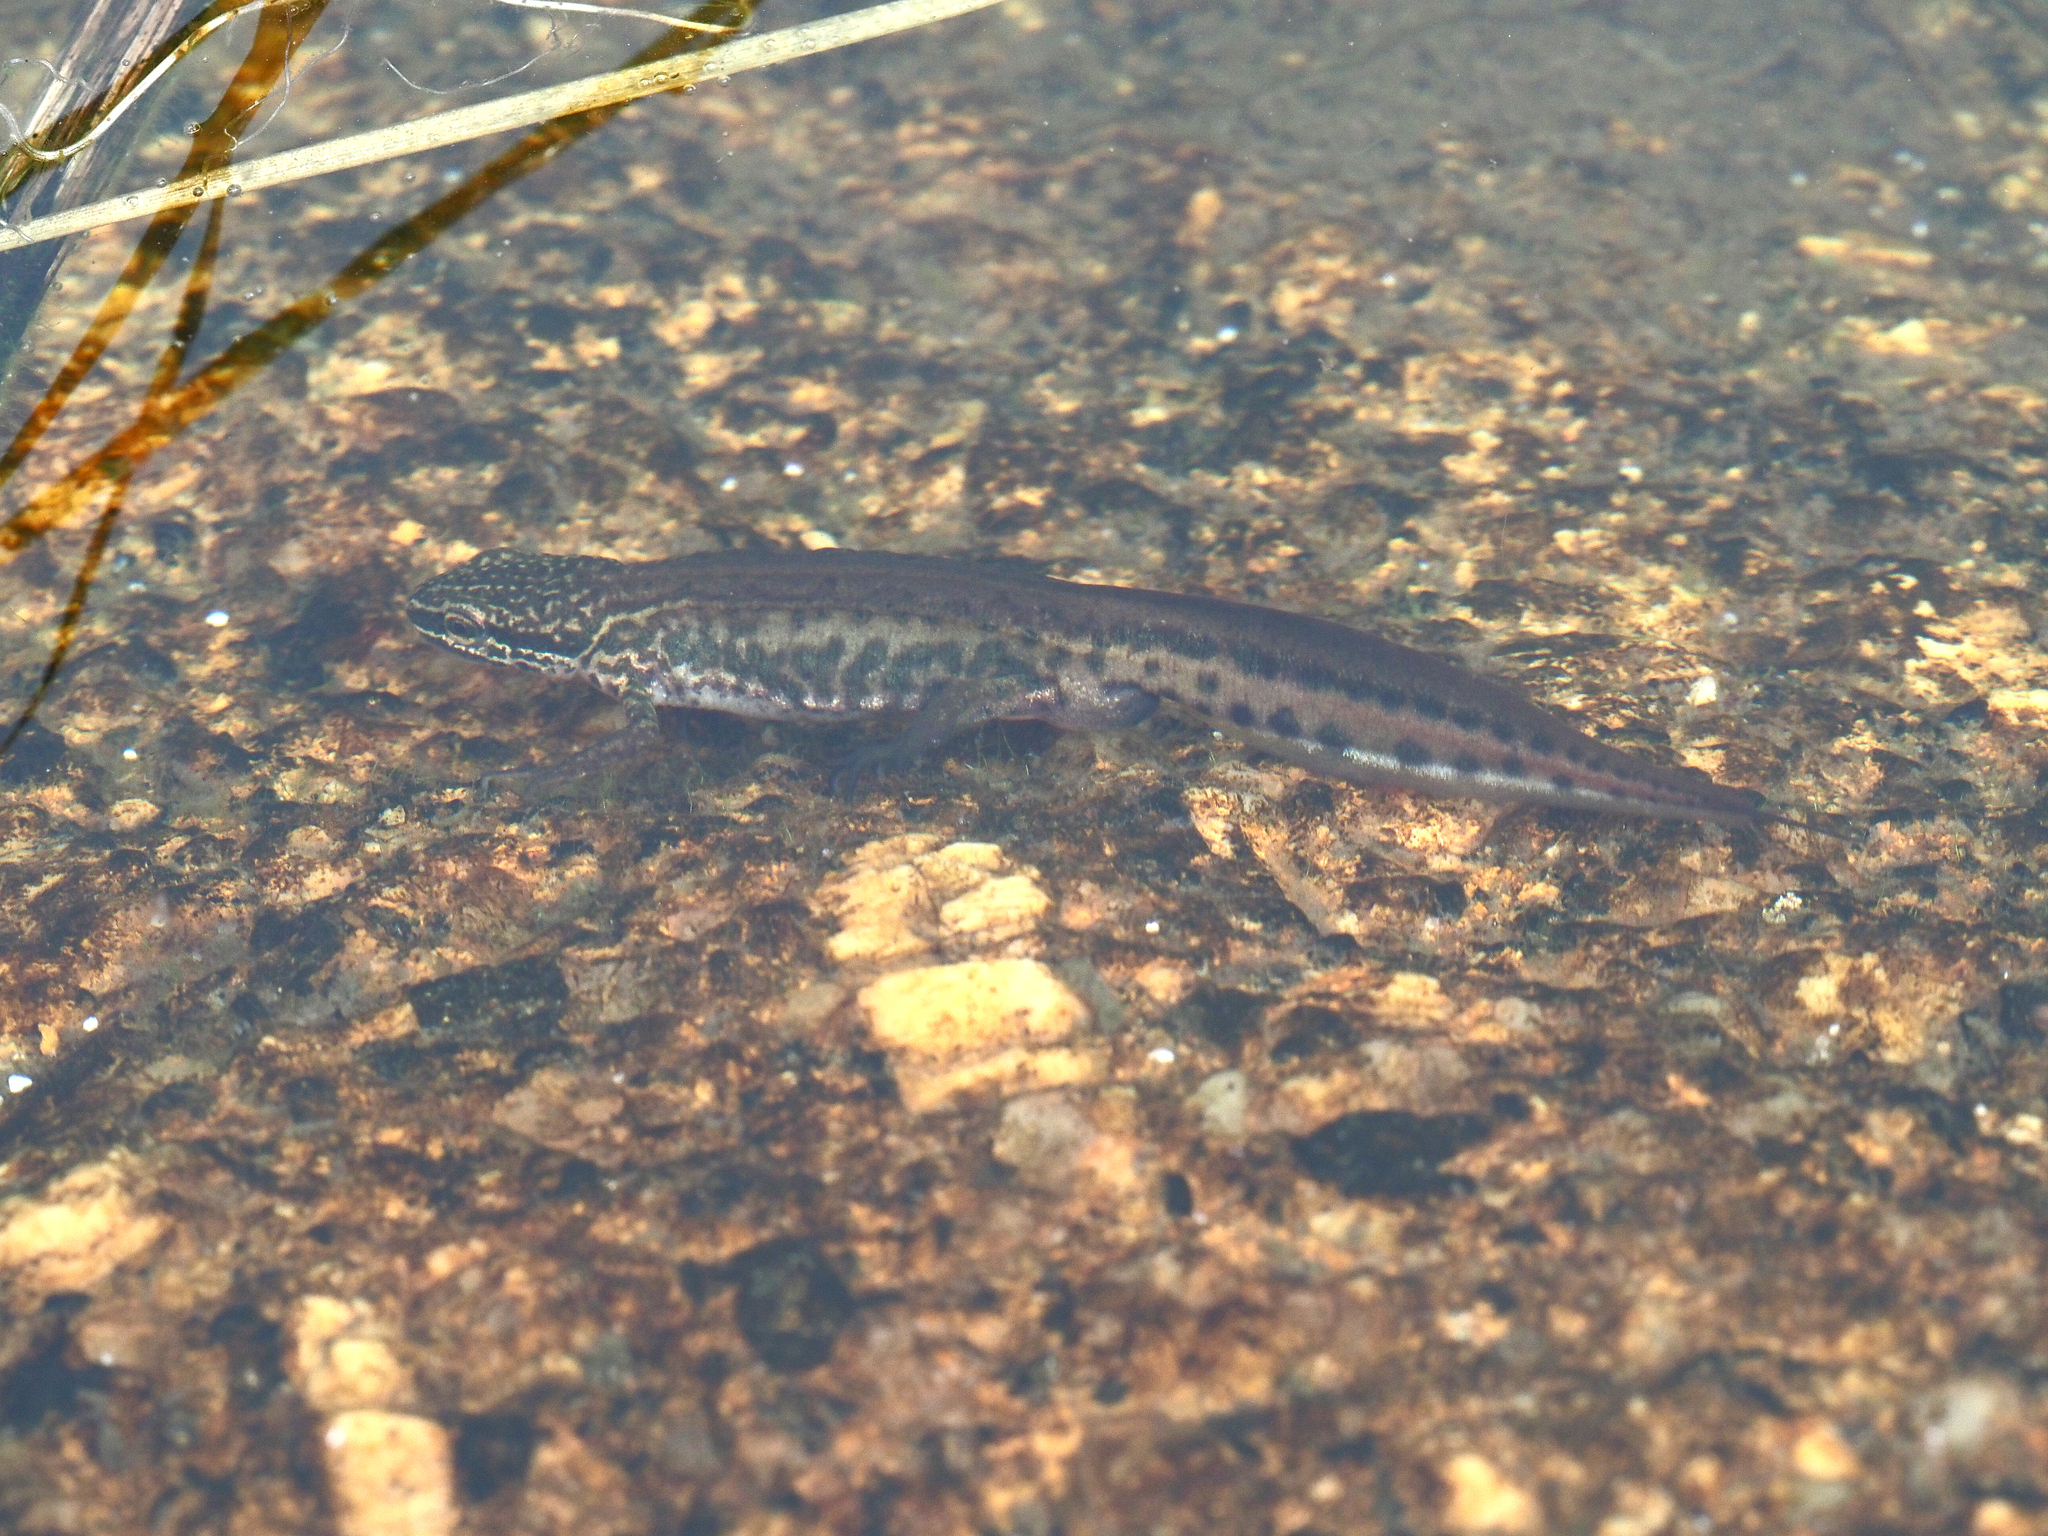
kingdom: Animalia
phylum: Chordata
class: Amphibia
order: Caudata
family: Salamandridae
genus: Lissotriton
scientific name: Lissotriton helveticus
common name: Palmate newt
